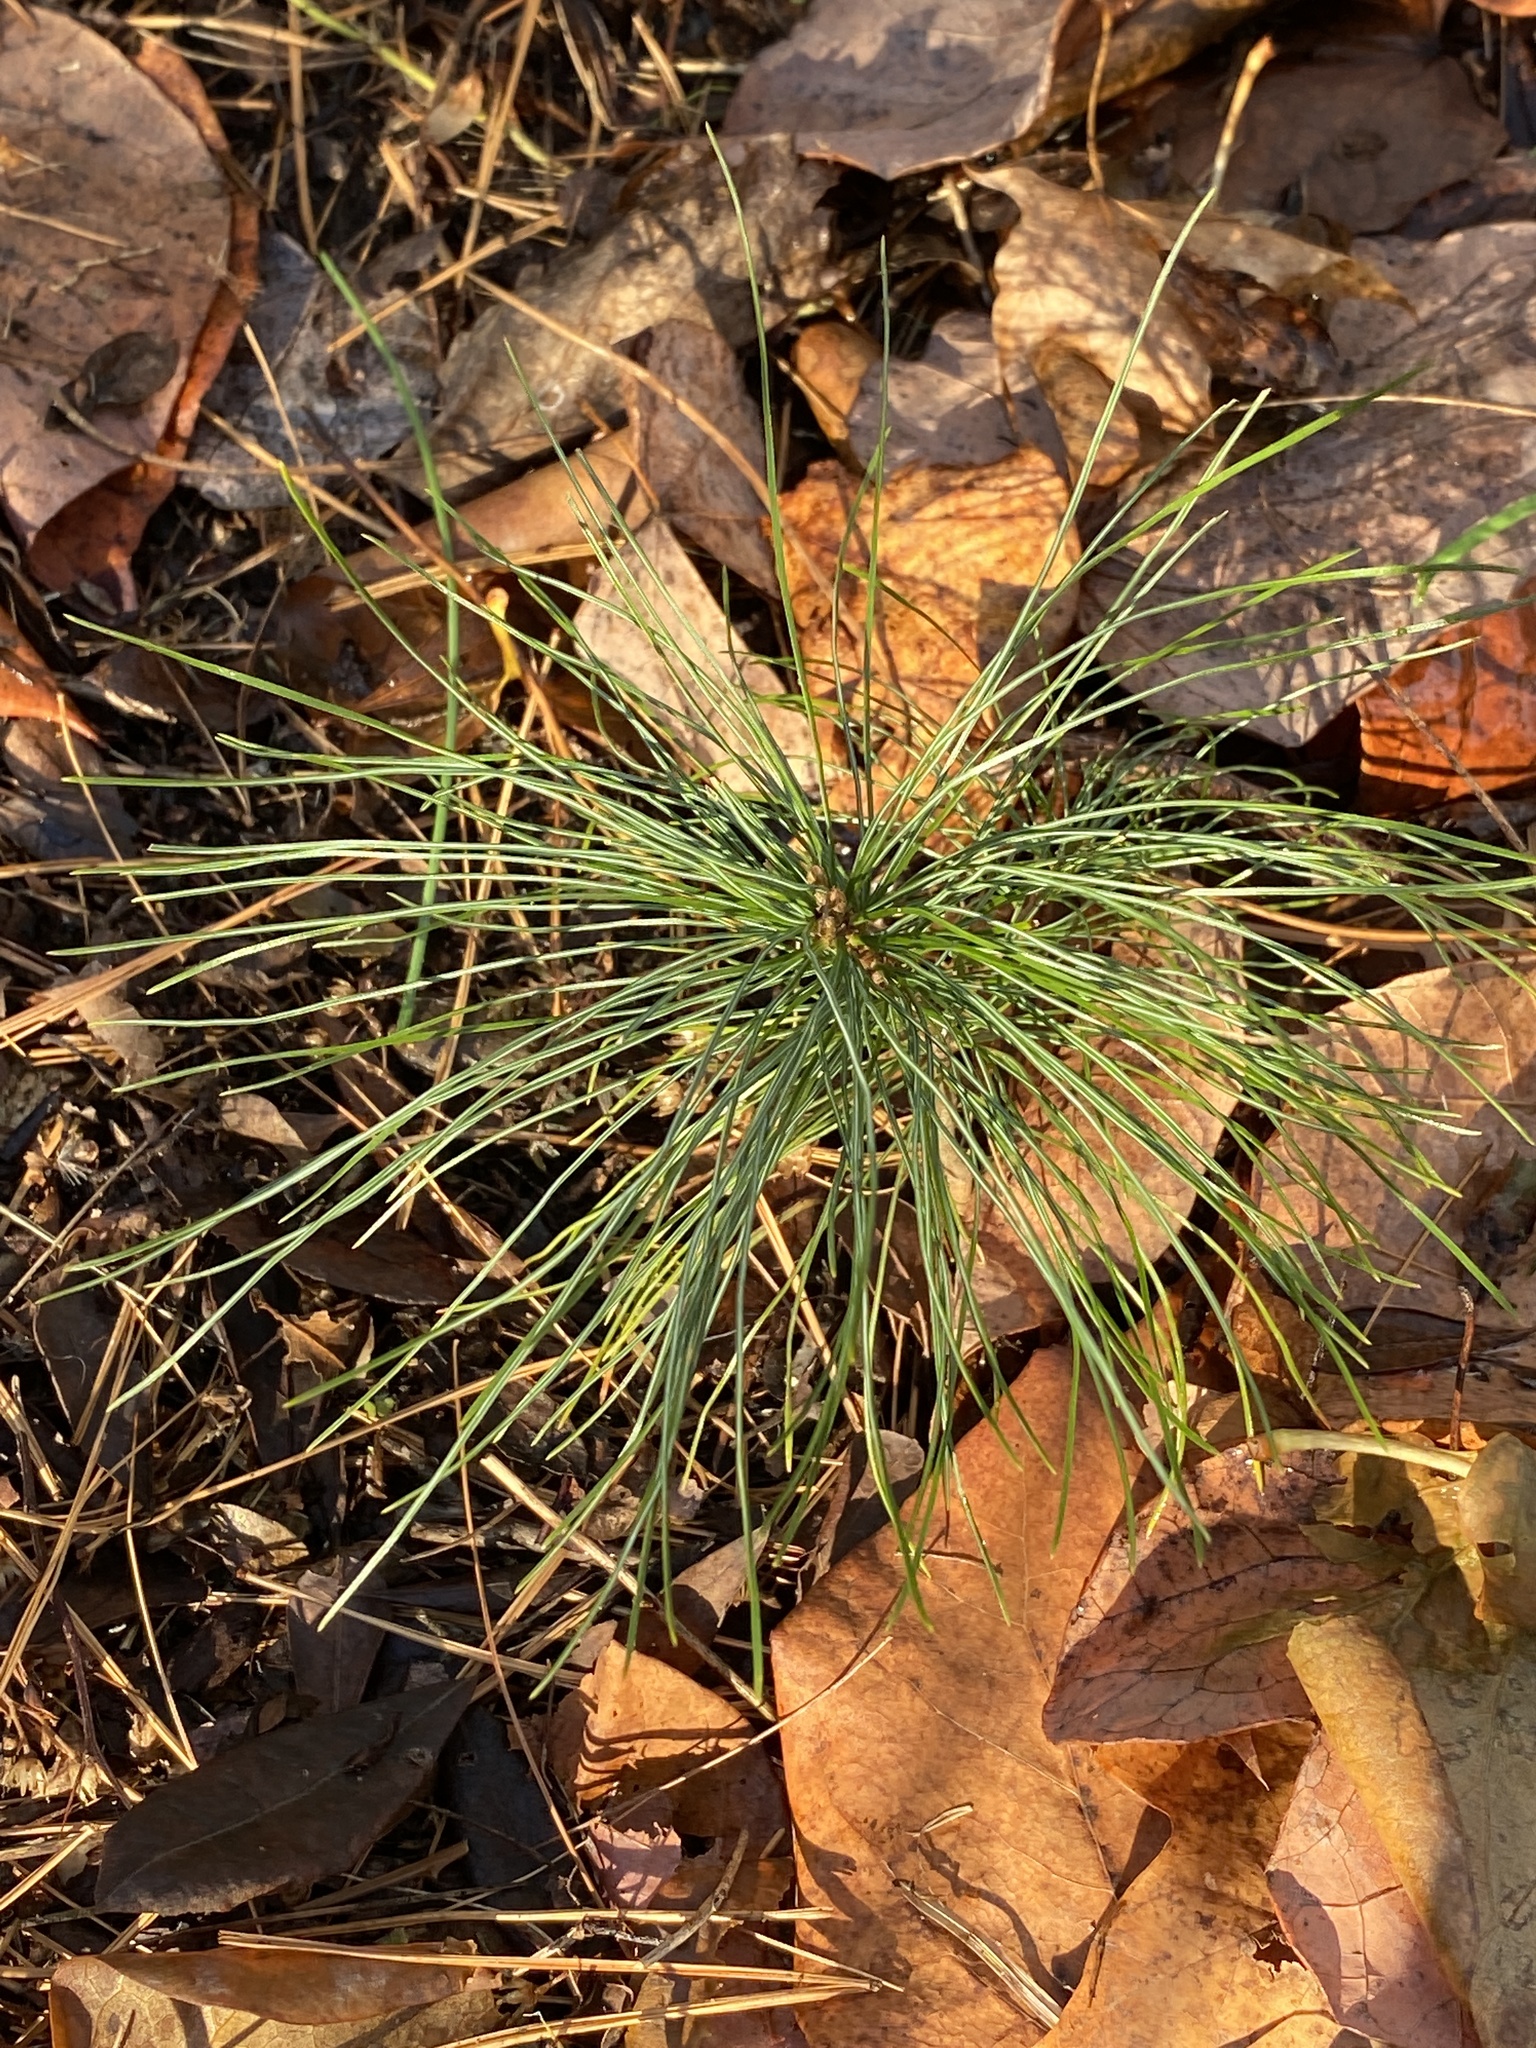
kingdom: Plantae
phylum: Tracheophyta
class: Pinopsida
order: Pinales
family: Pinaceae
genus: Pinus
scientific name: Pinus strobus
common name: Weymouth pine
